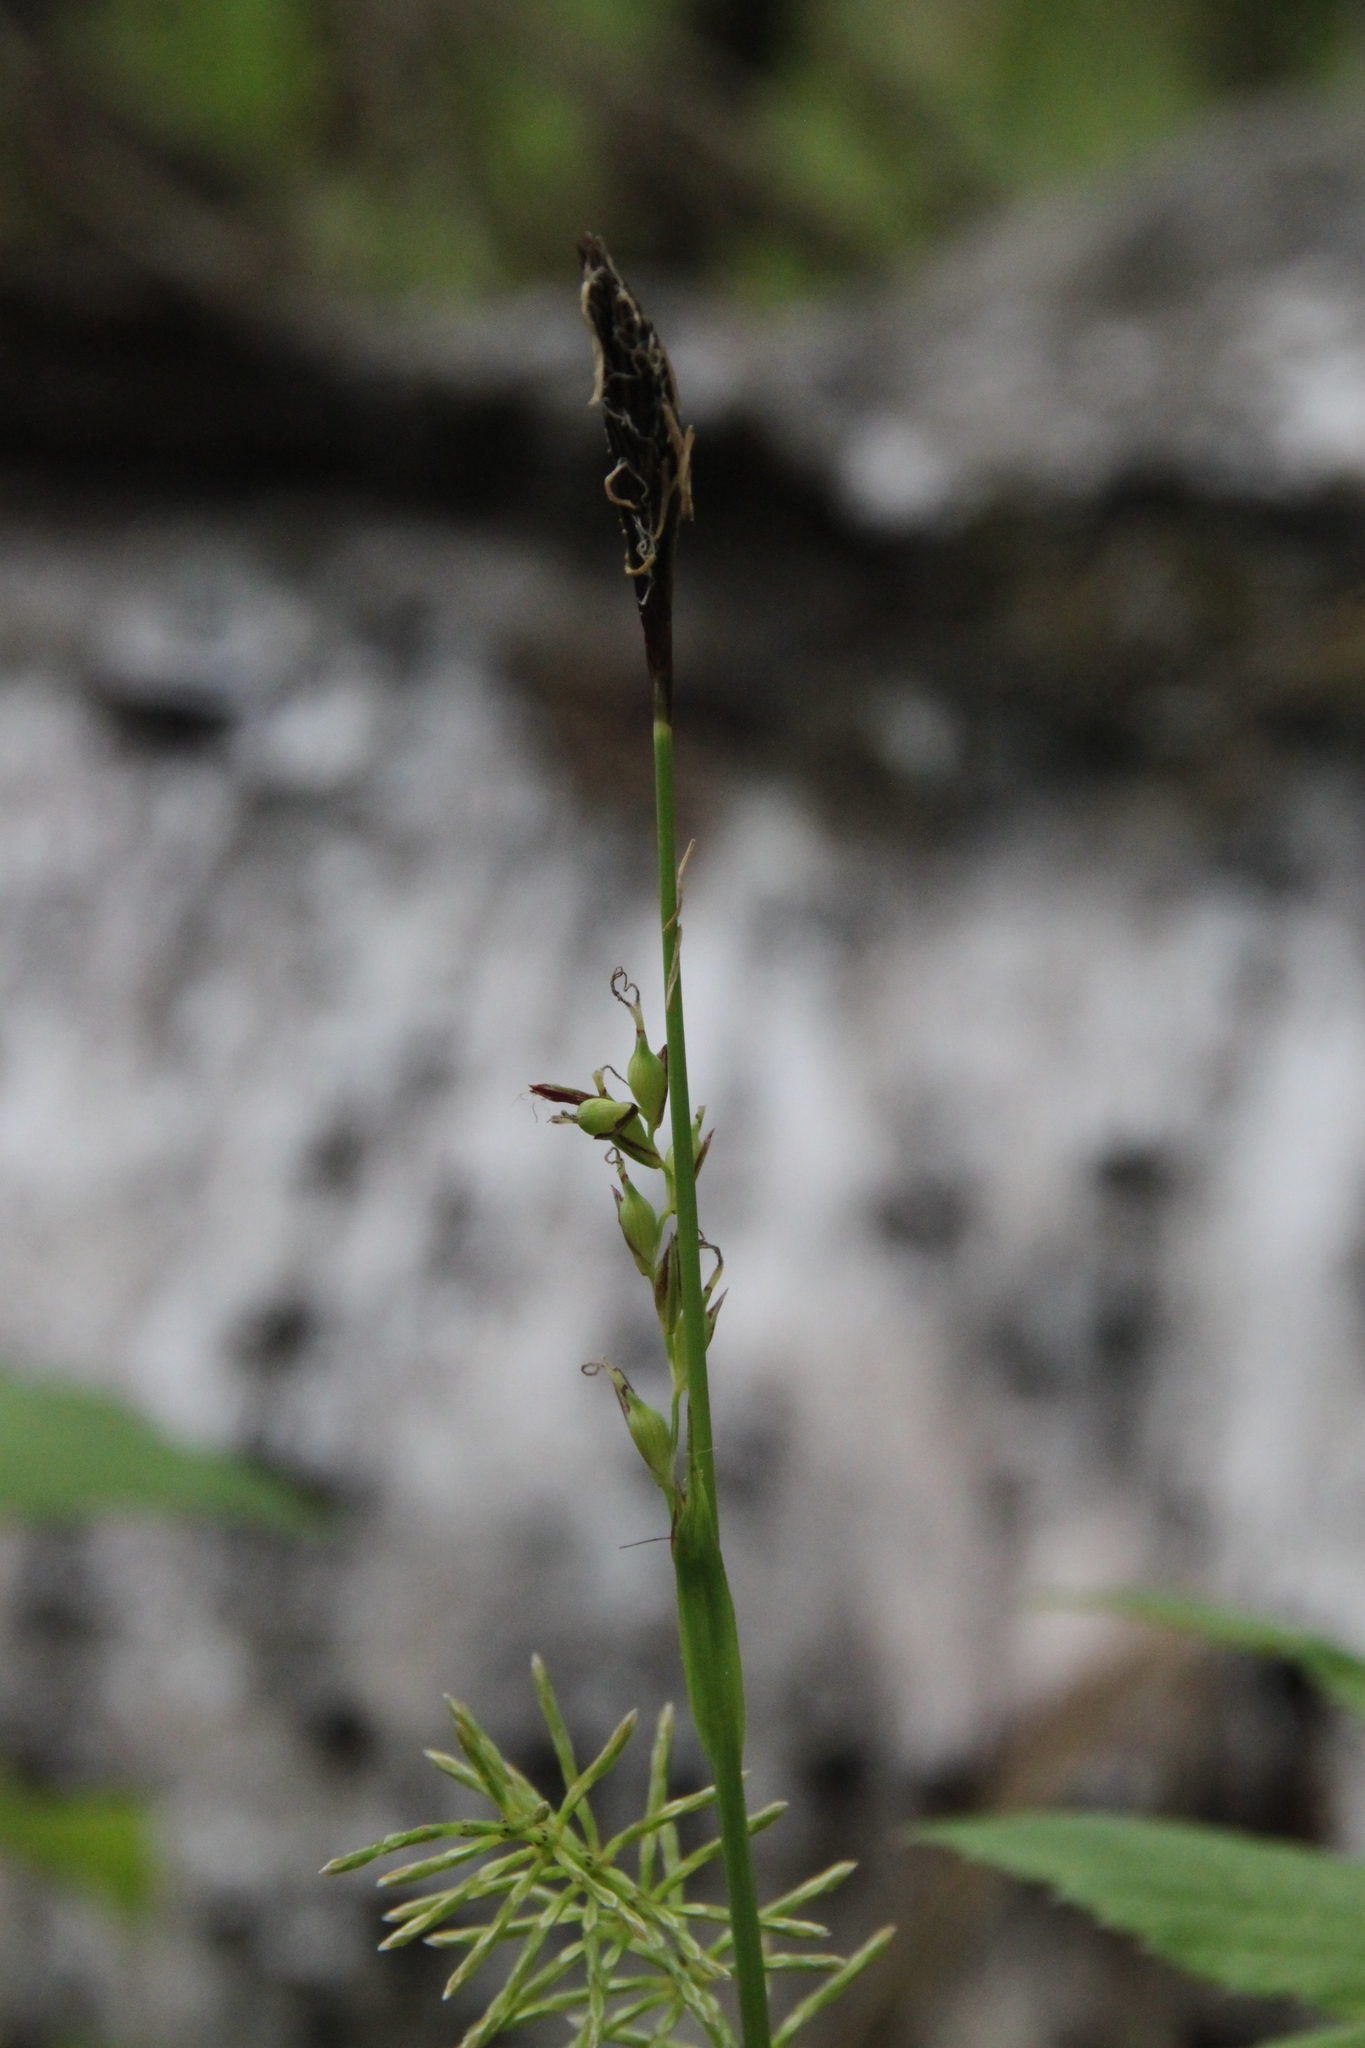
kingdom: Plantae
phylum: Tracheophyta
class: Liliopsida
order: Poales
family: Cyperaceae
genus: Carex
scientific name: Carex pilosa
